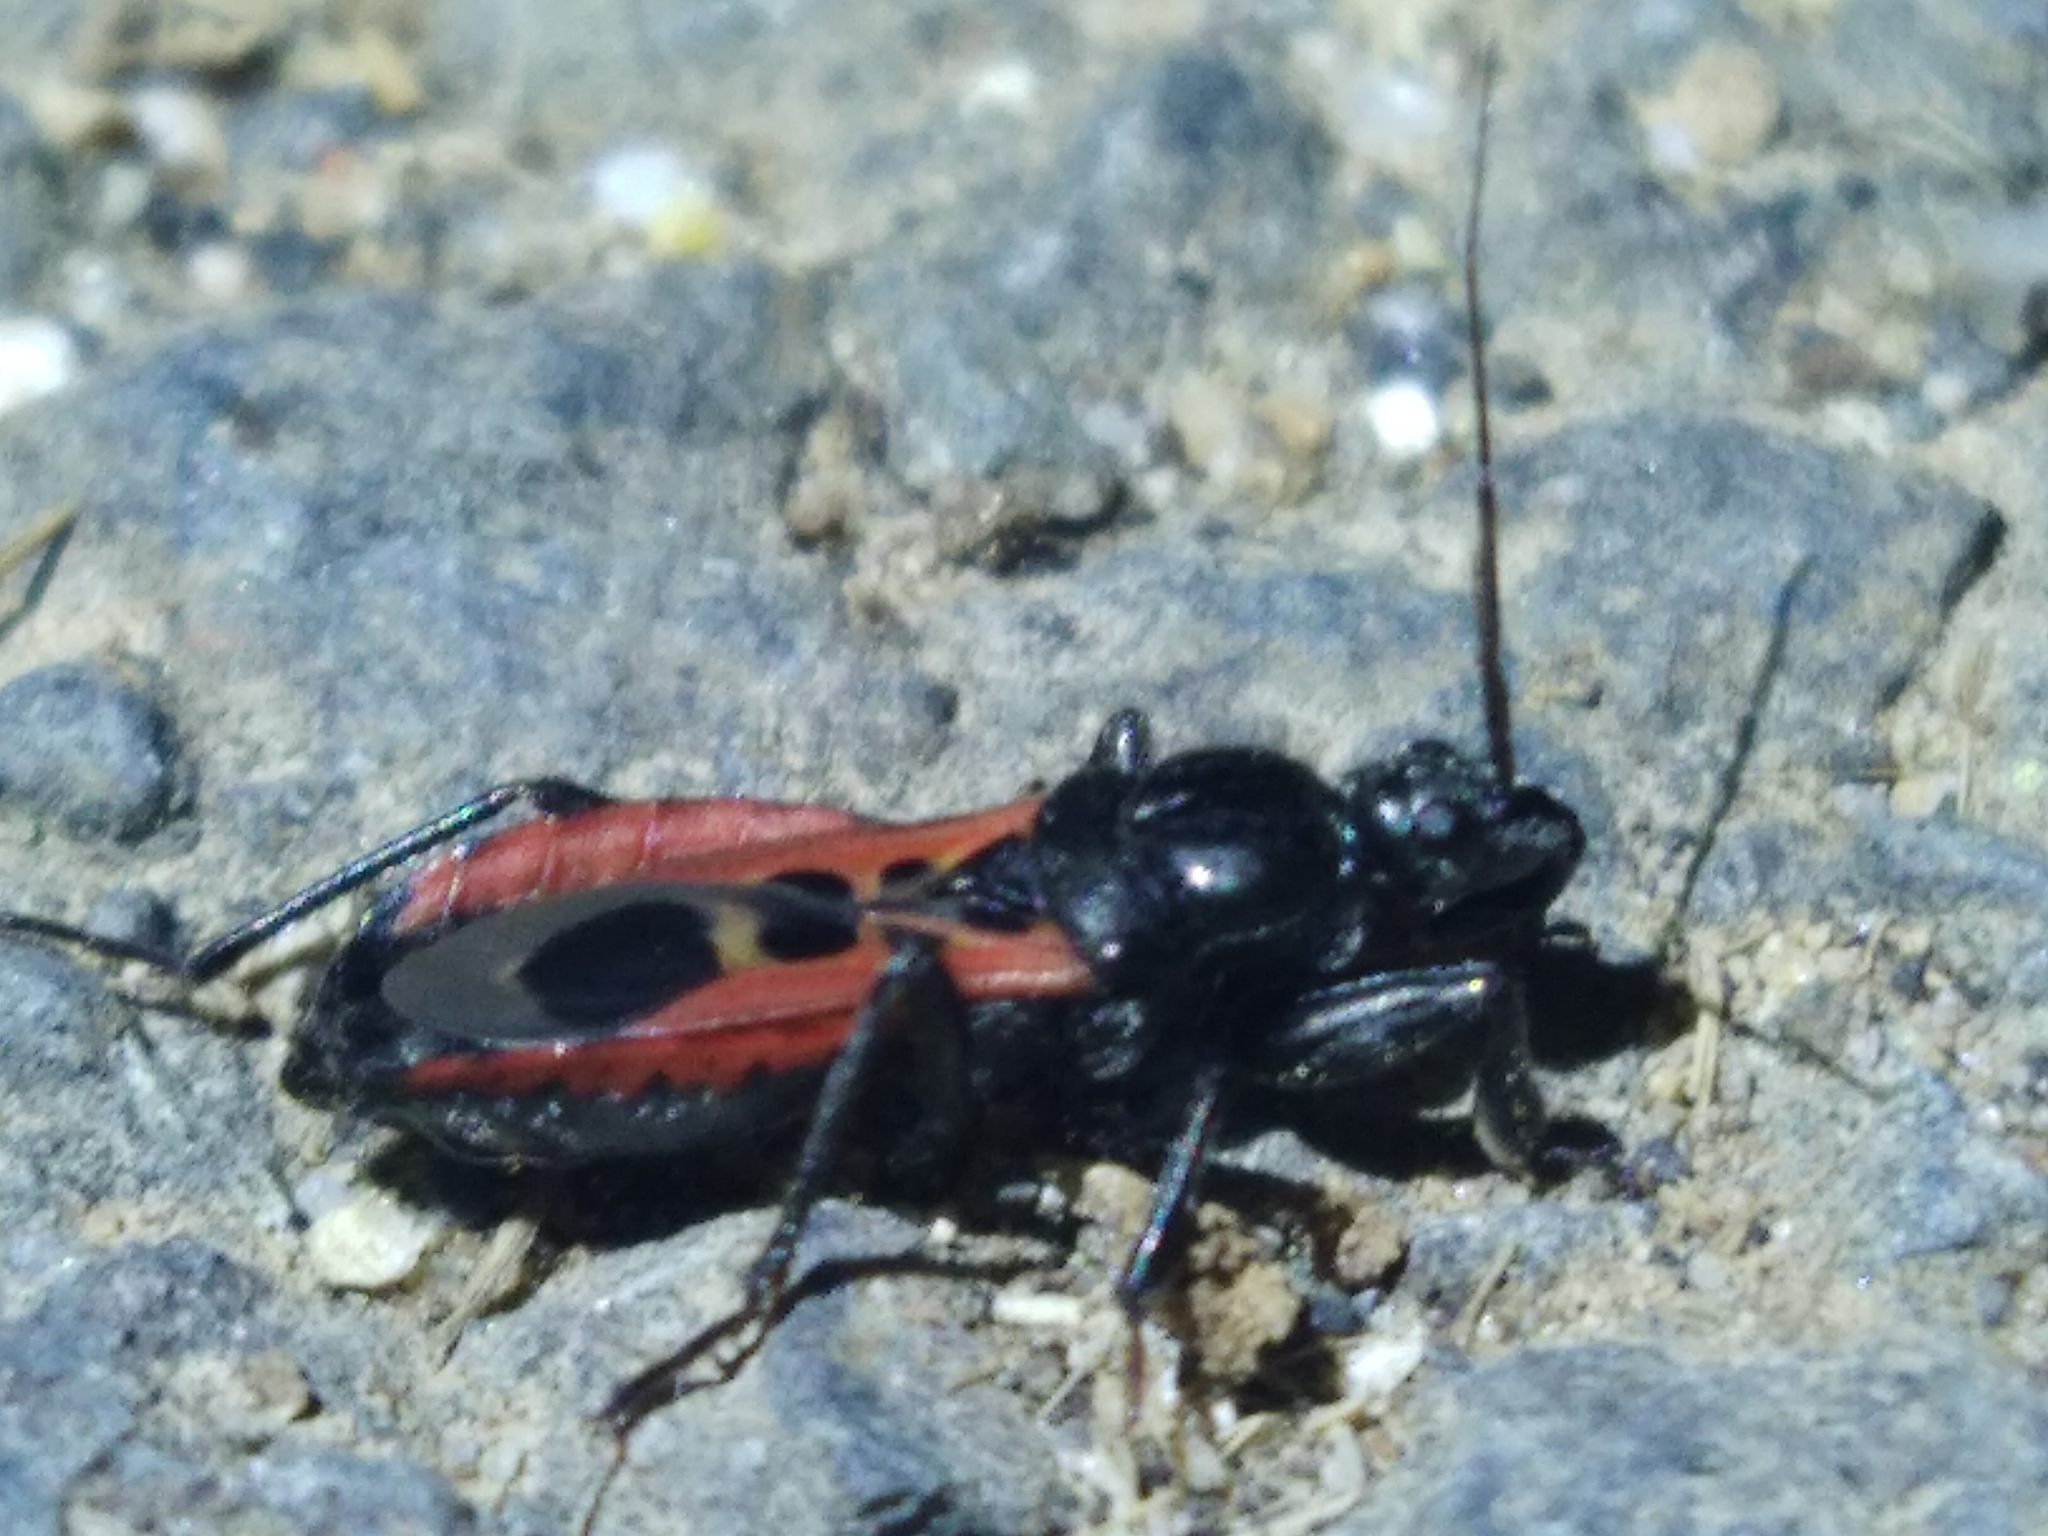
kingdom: Animalia
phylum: Arthropoda
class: Insecta
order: Hemiptera
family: Reduviidae
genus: Peirates
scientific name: Peirates stridulus
